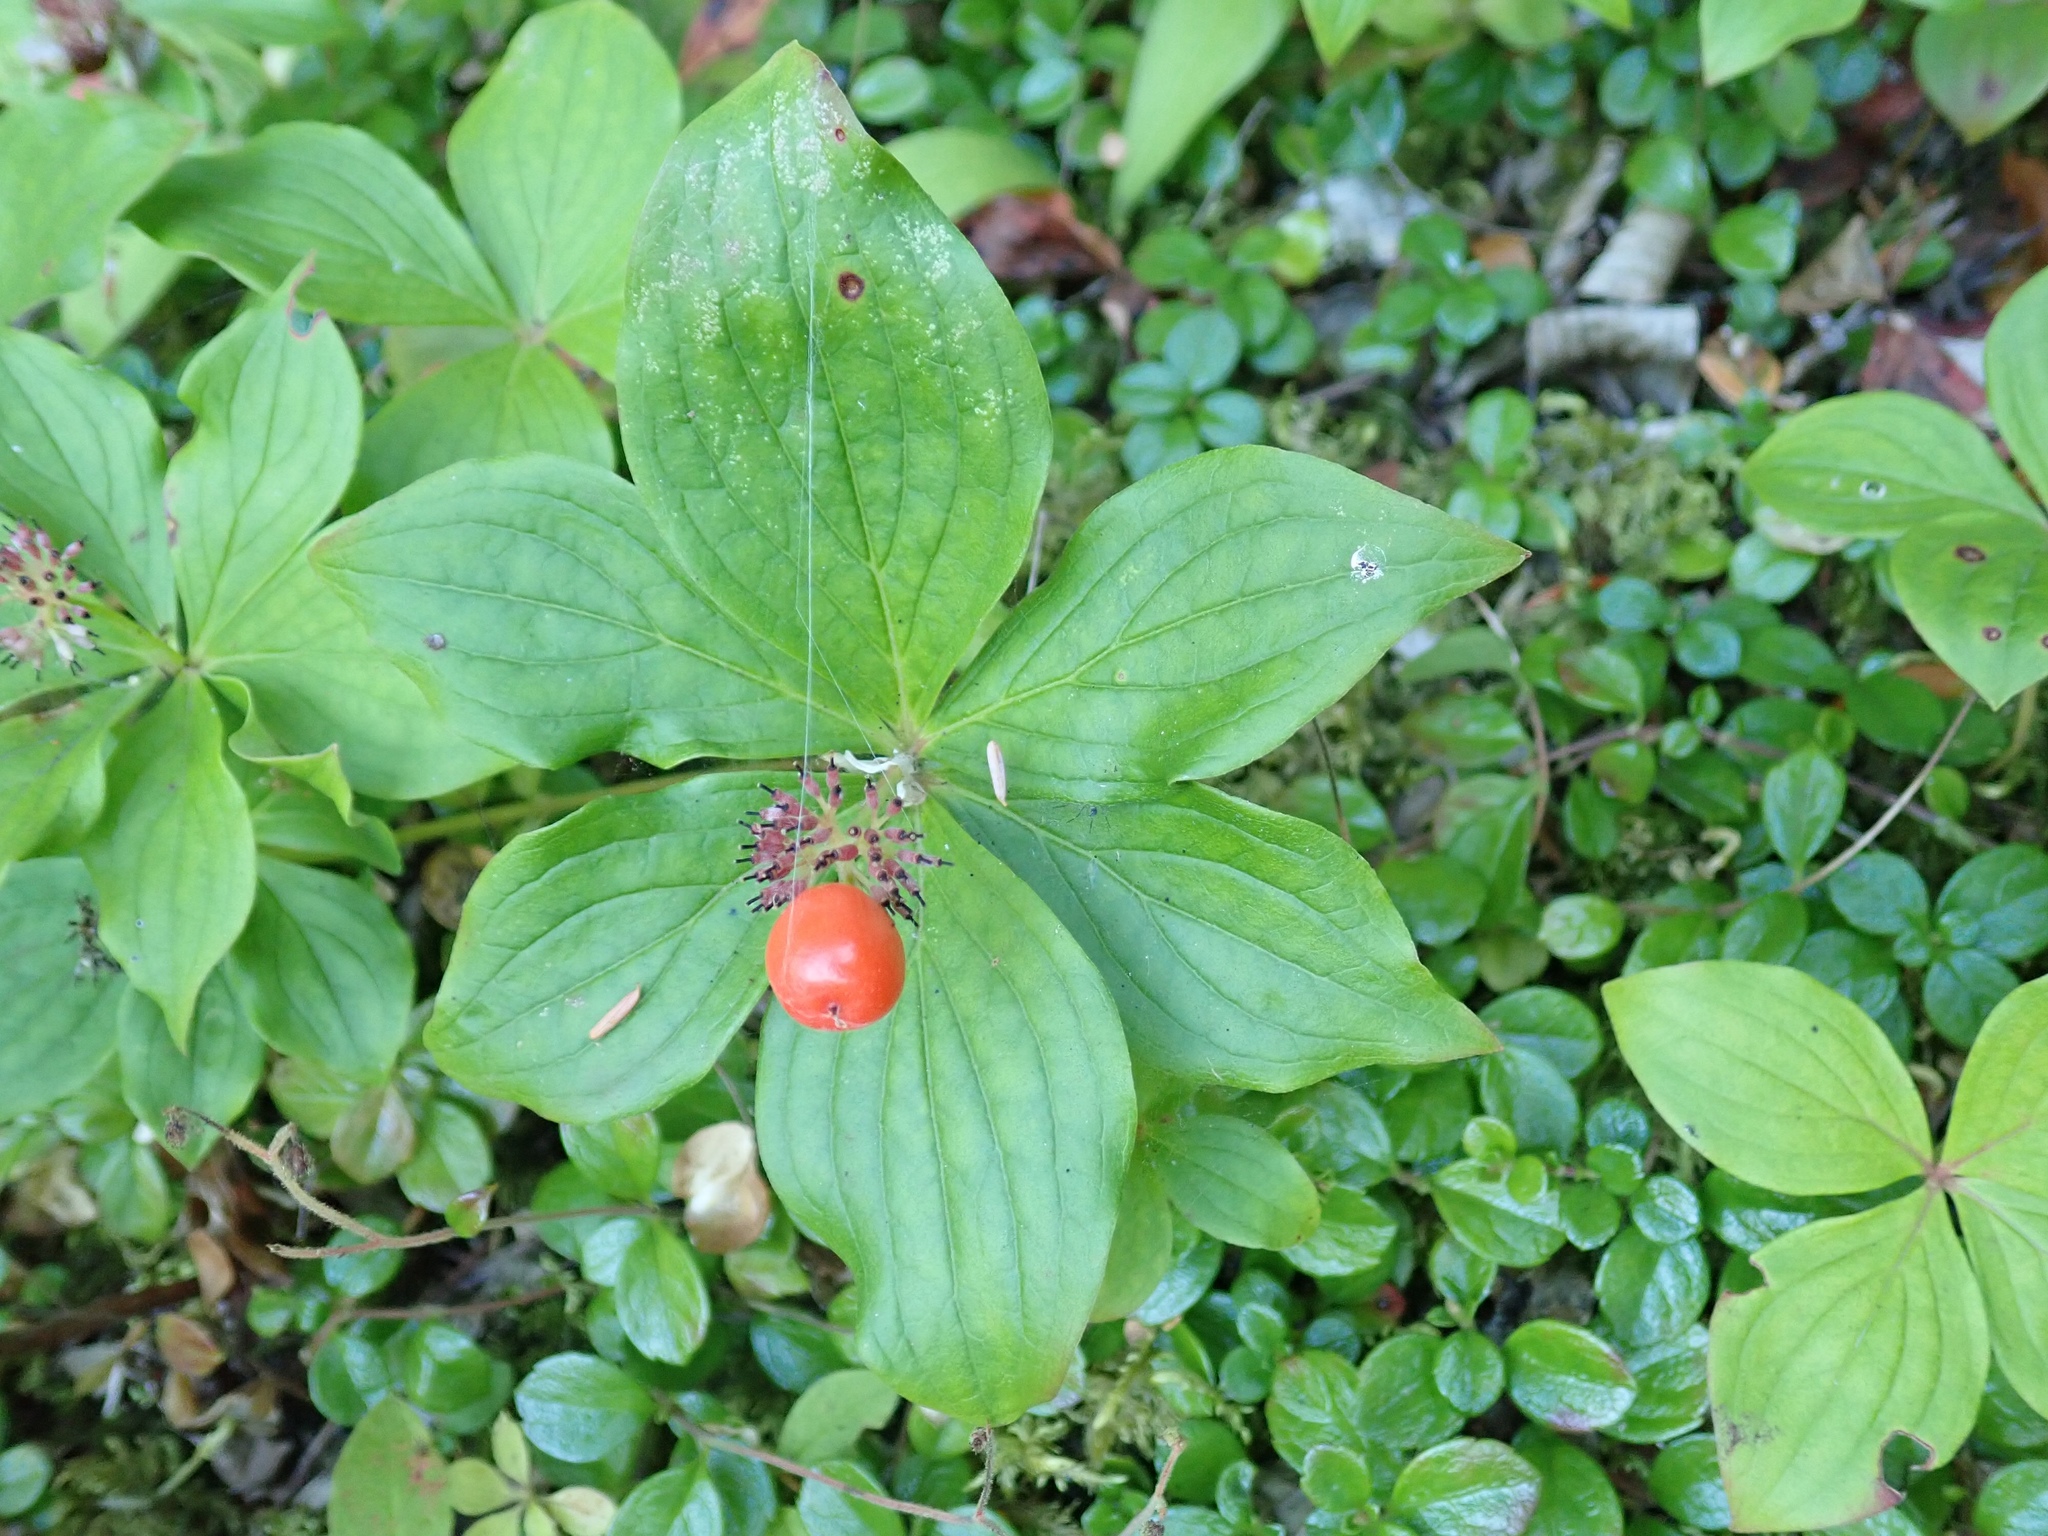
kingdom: Plantae
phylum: Tracheophyta
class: Magnoliopsida
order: Cornales
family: Cornaceae
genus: Cornus
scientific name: Cornus unalaschkensis
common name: Alaska bunchberry
